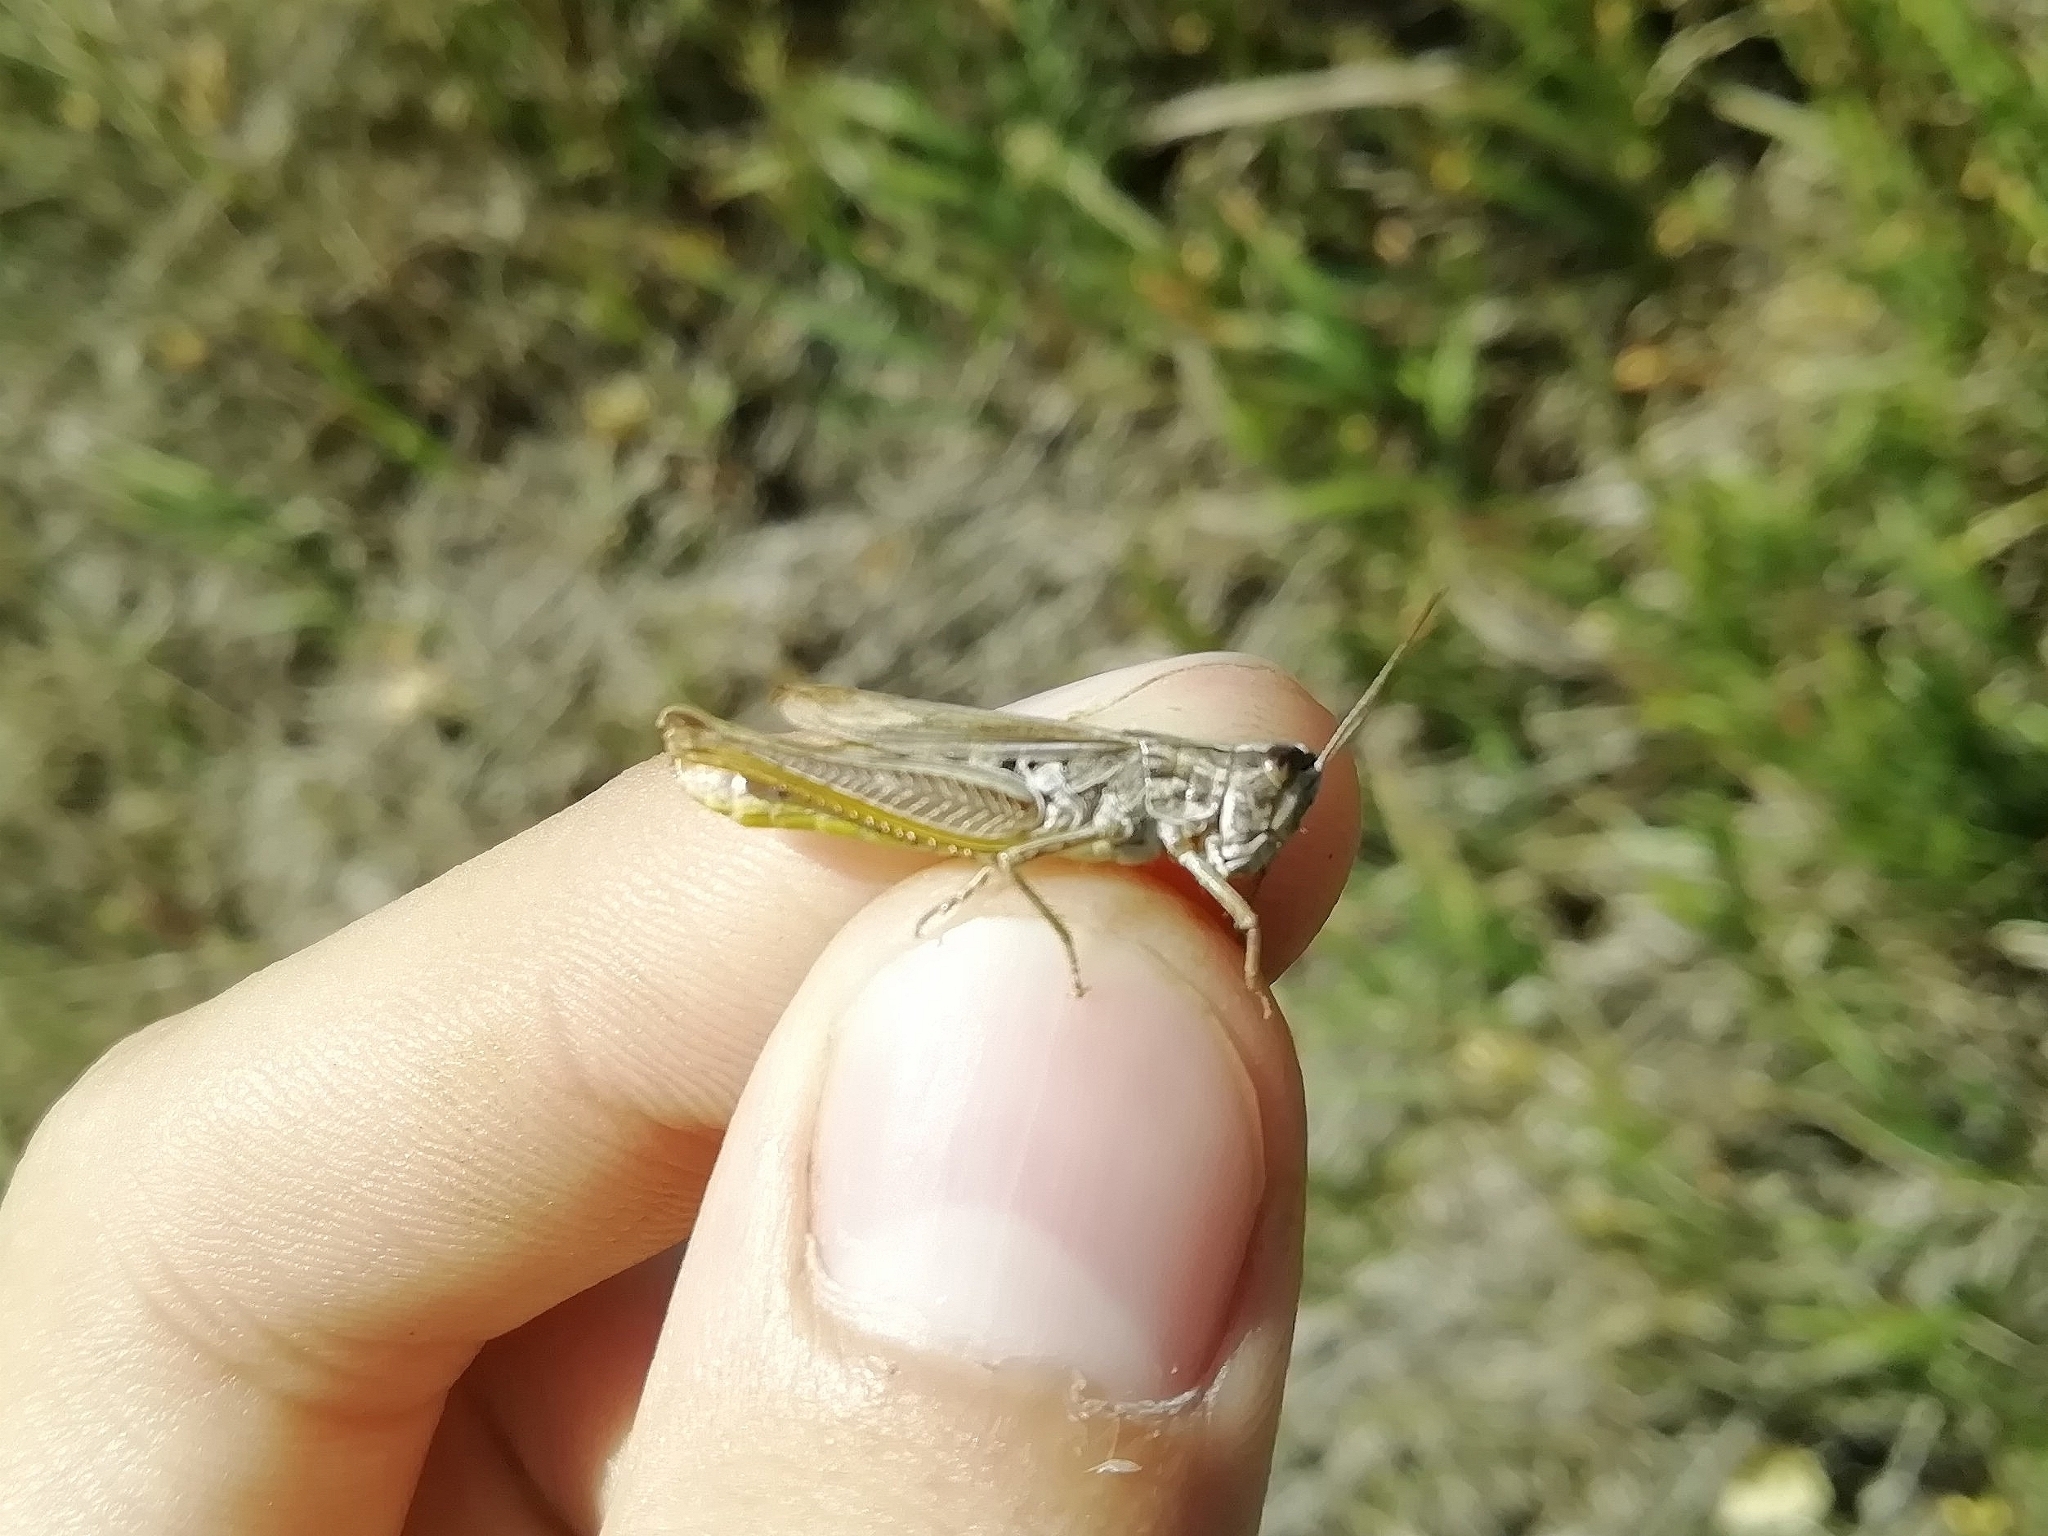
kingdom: Animalia
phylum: Arthropoda
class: Insecta
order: Orthoptera
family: Acrididae
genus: Chorthippus
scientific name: Chorthippus apricarius
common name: Upland field grasshopper
